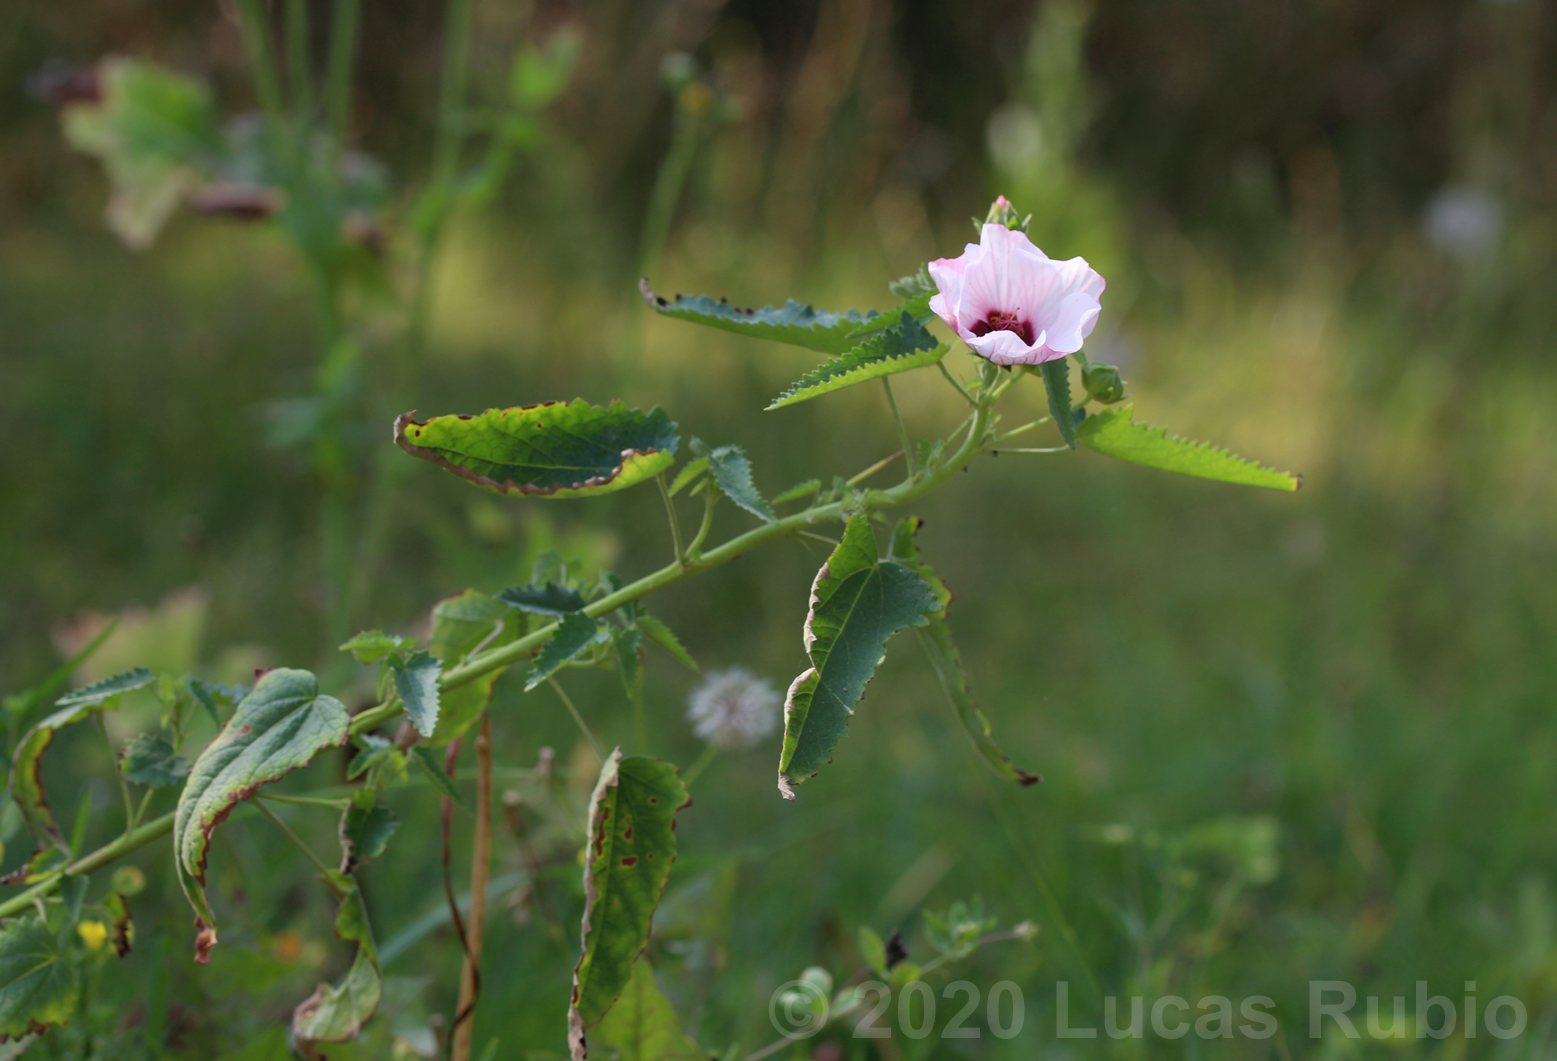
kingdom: Plantae
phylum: Tracheophyta
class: Magnoliopsida
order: Malvales
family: Malvaceae
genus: Pavonia
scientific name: Pavonia hastata
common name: Spearleaf swampmallow
